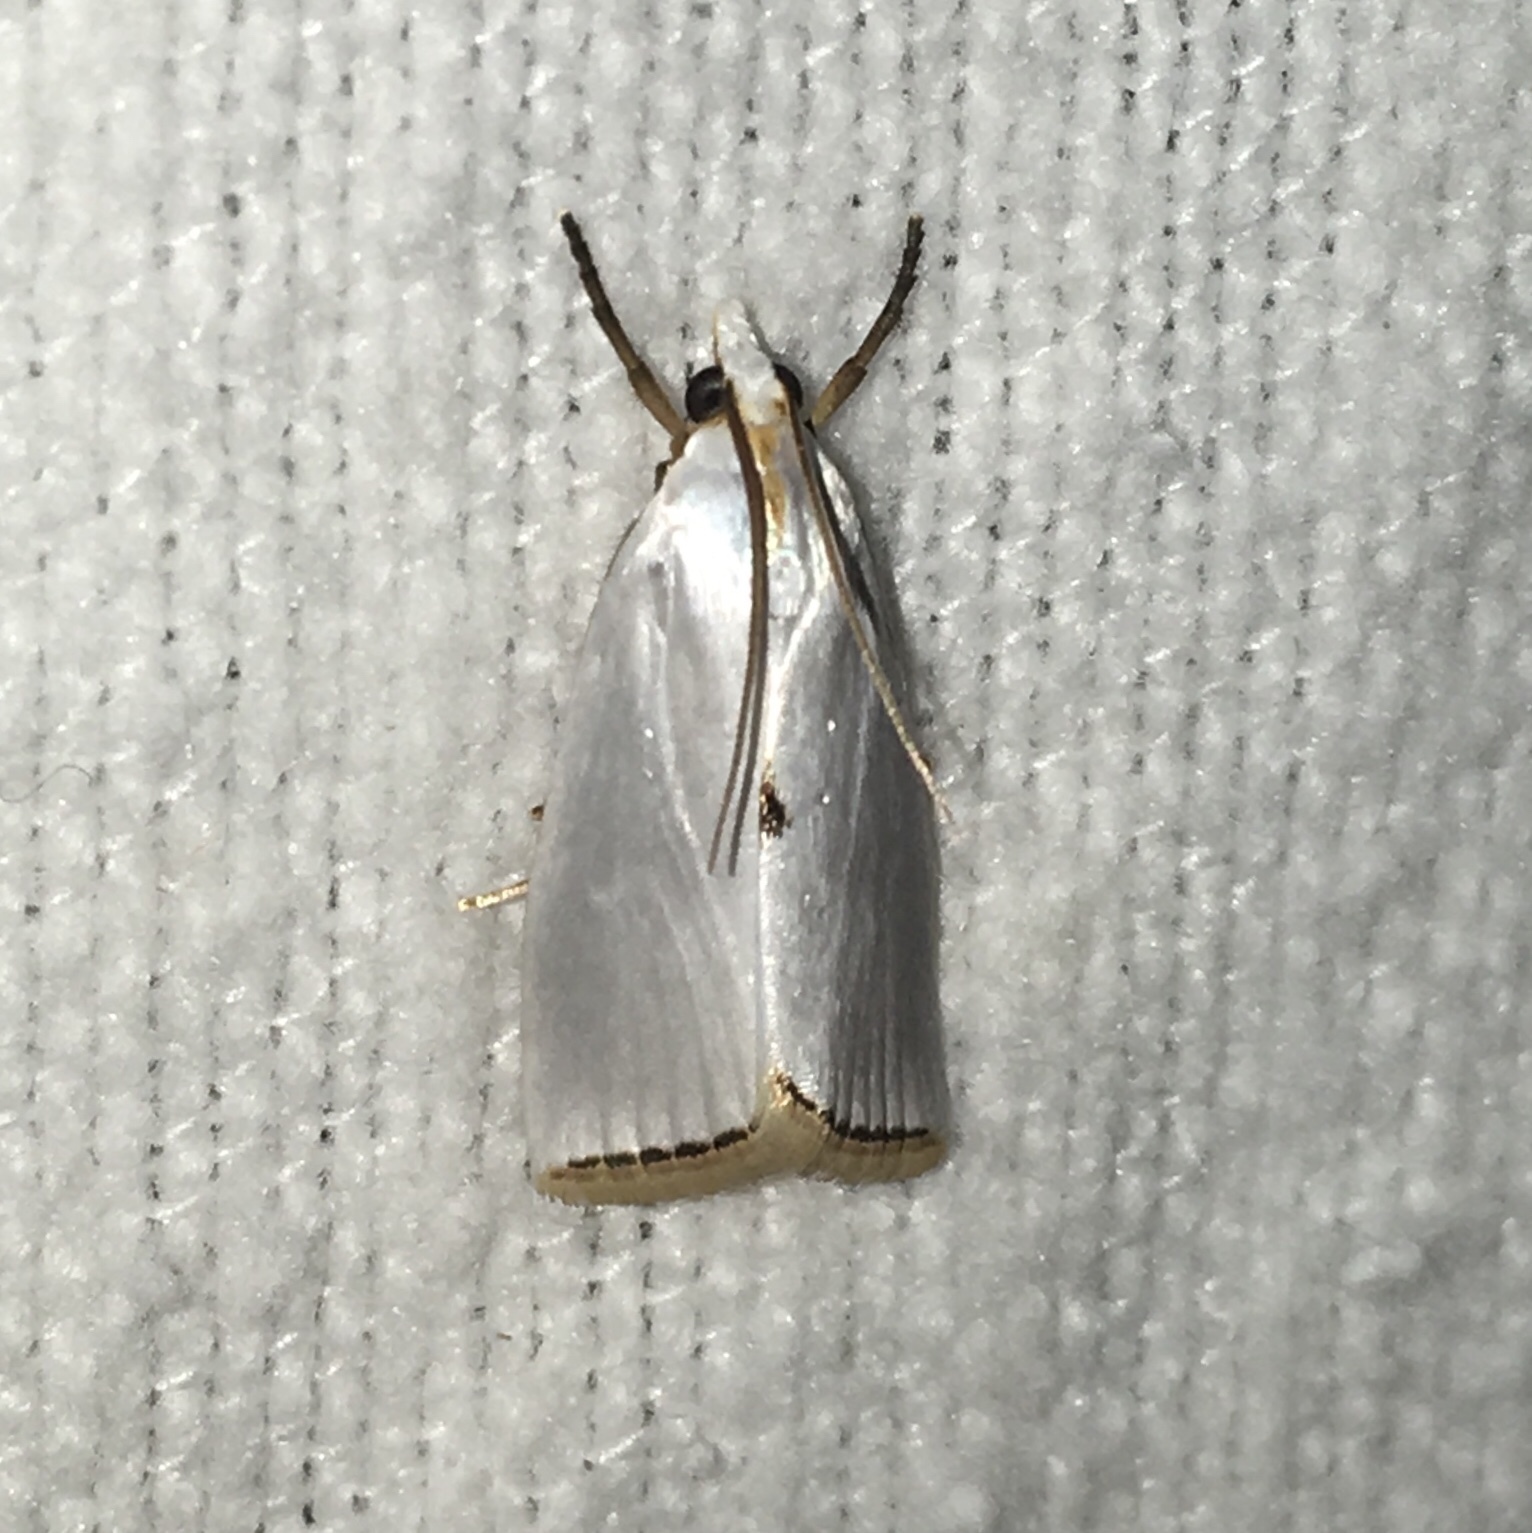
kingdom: Animalia
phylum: Arthropoda
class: Insecta
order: Lepidoptera
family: Crambidae
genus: Argyria
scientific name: Argyria nivalis
